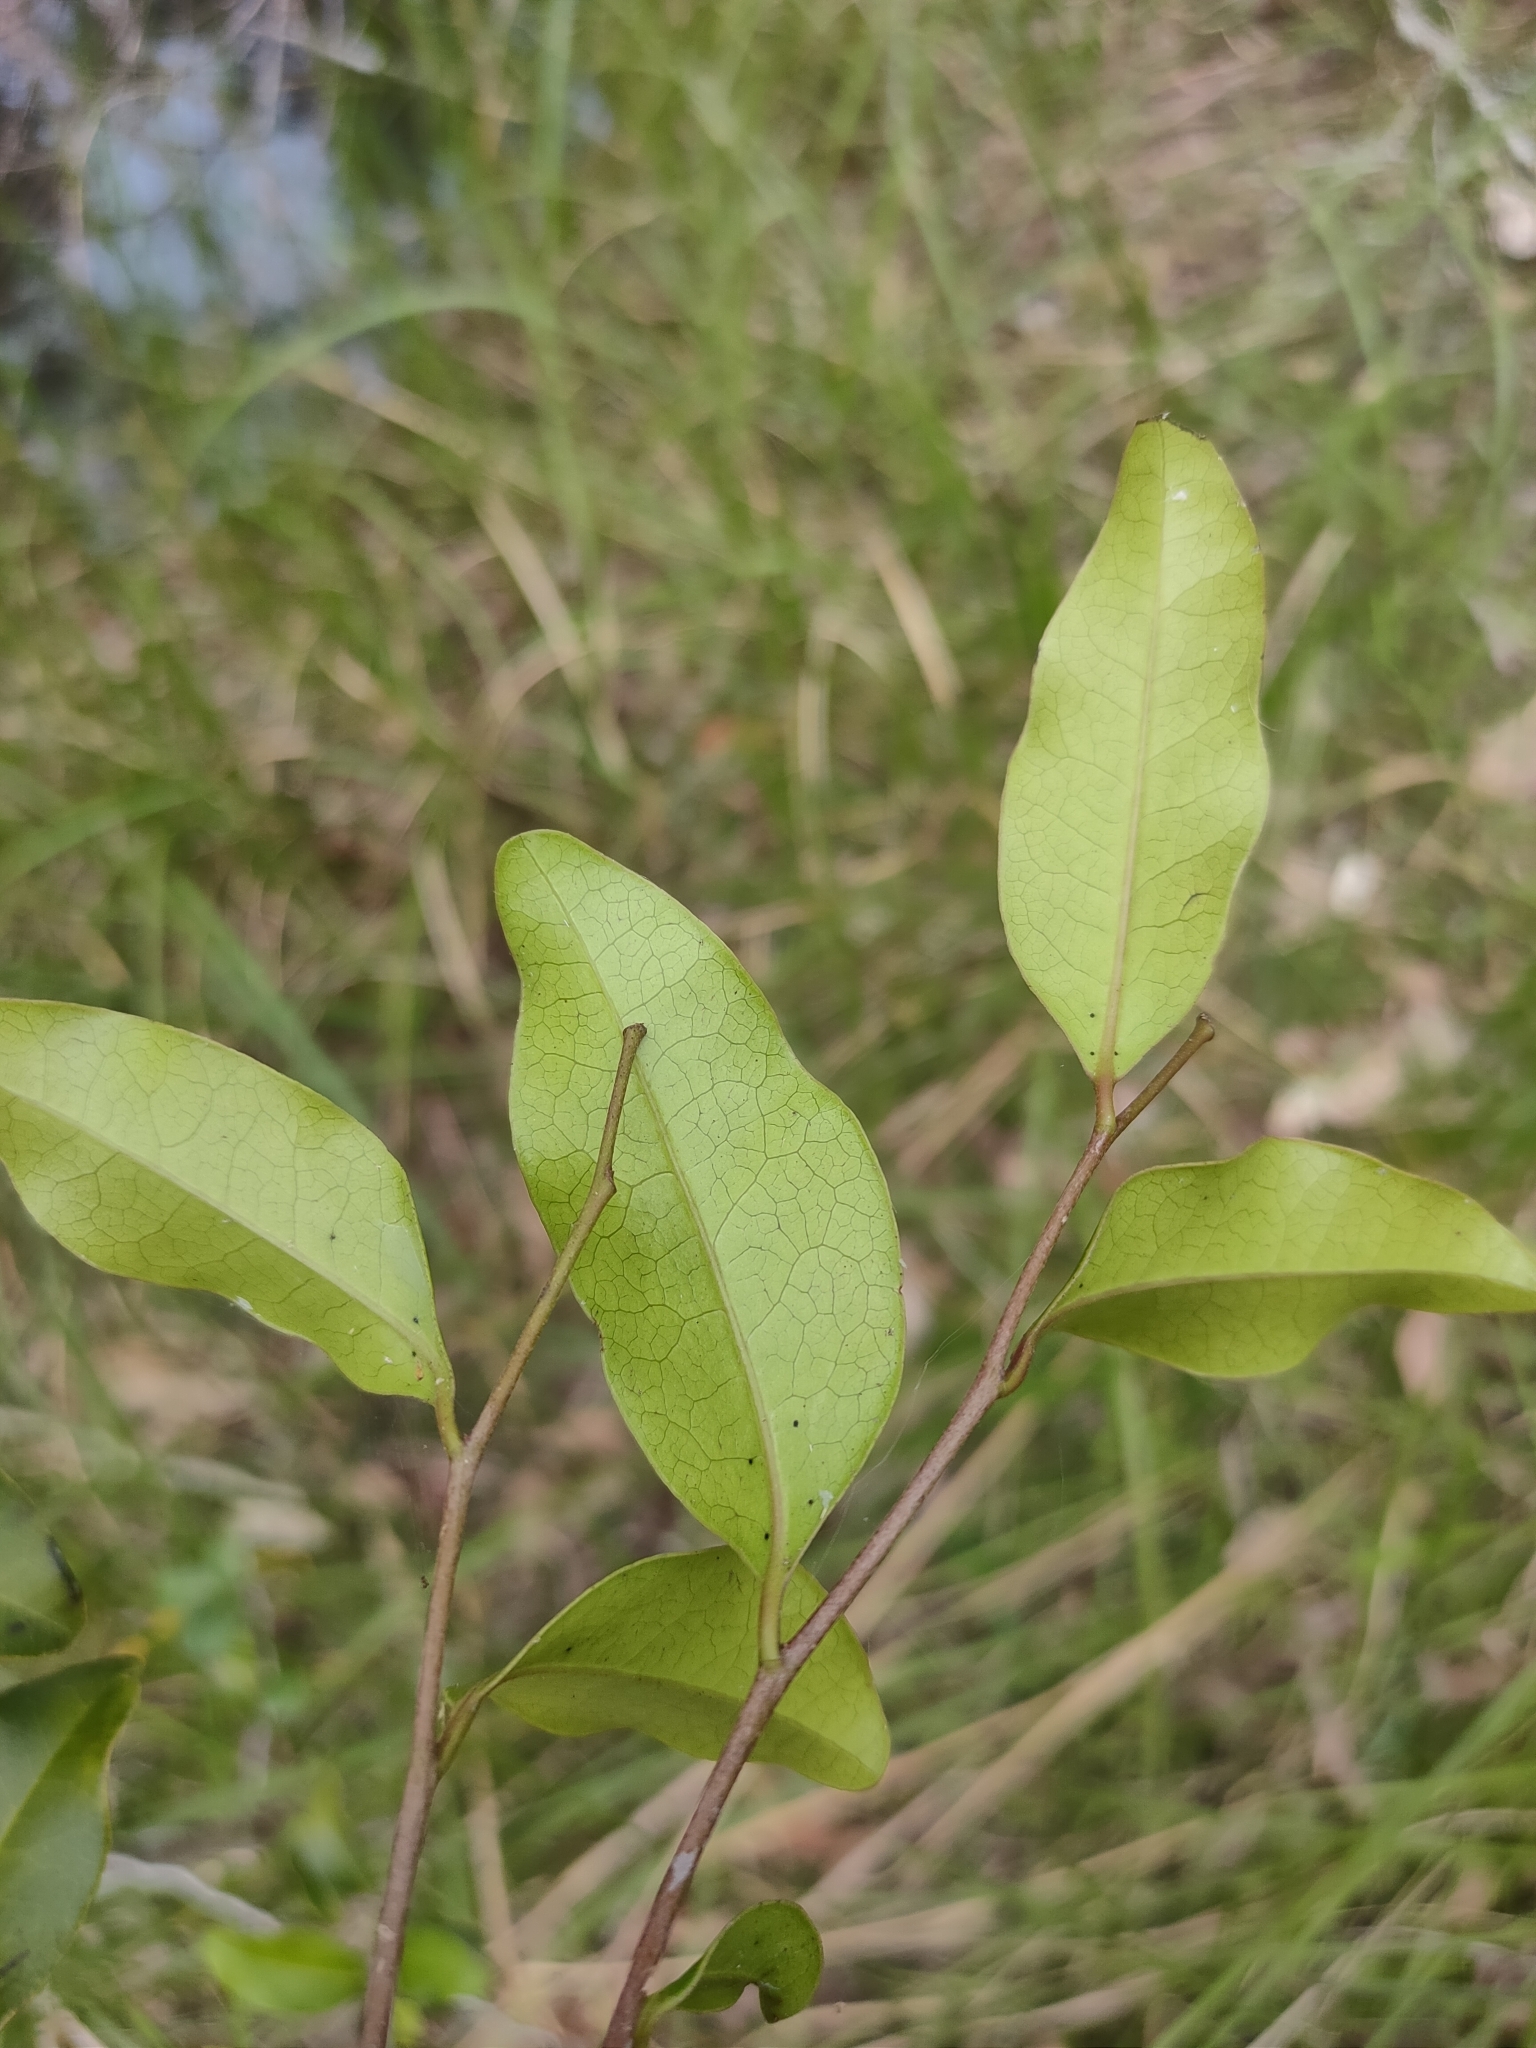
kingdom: Plantae
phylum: Tracheophyta
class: Magnoliopsida
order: Ericales
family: Ebenaceae
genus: Diospyros
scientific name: Diospyros geminata
